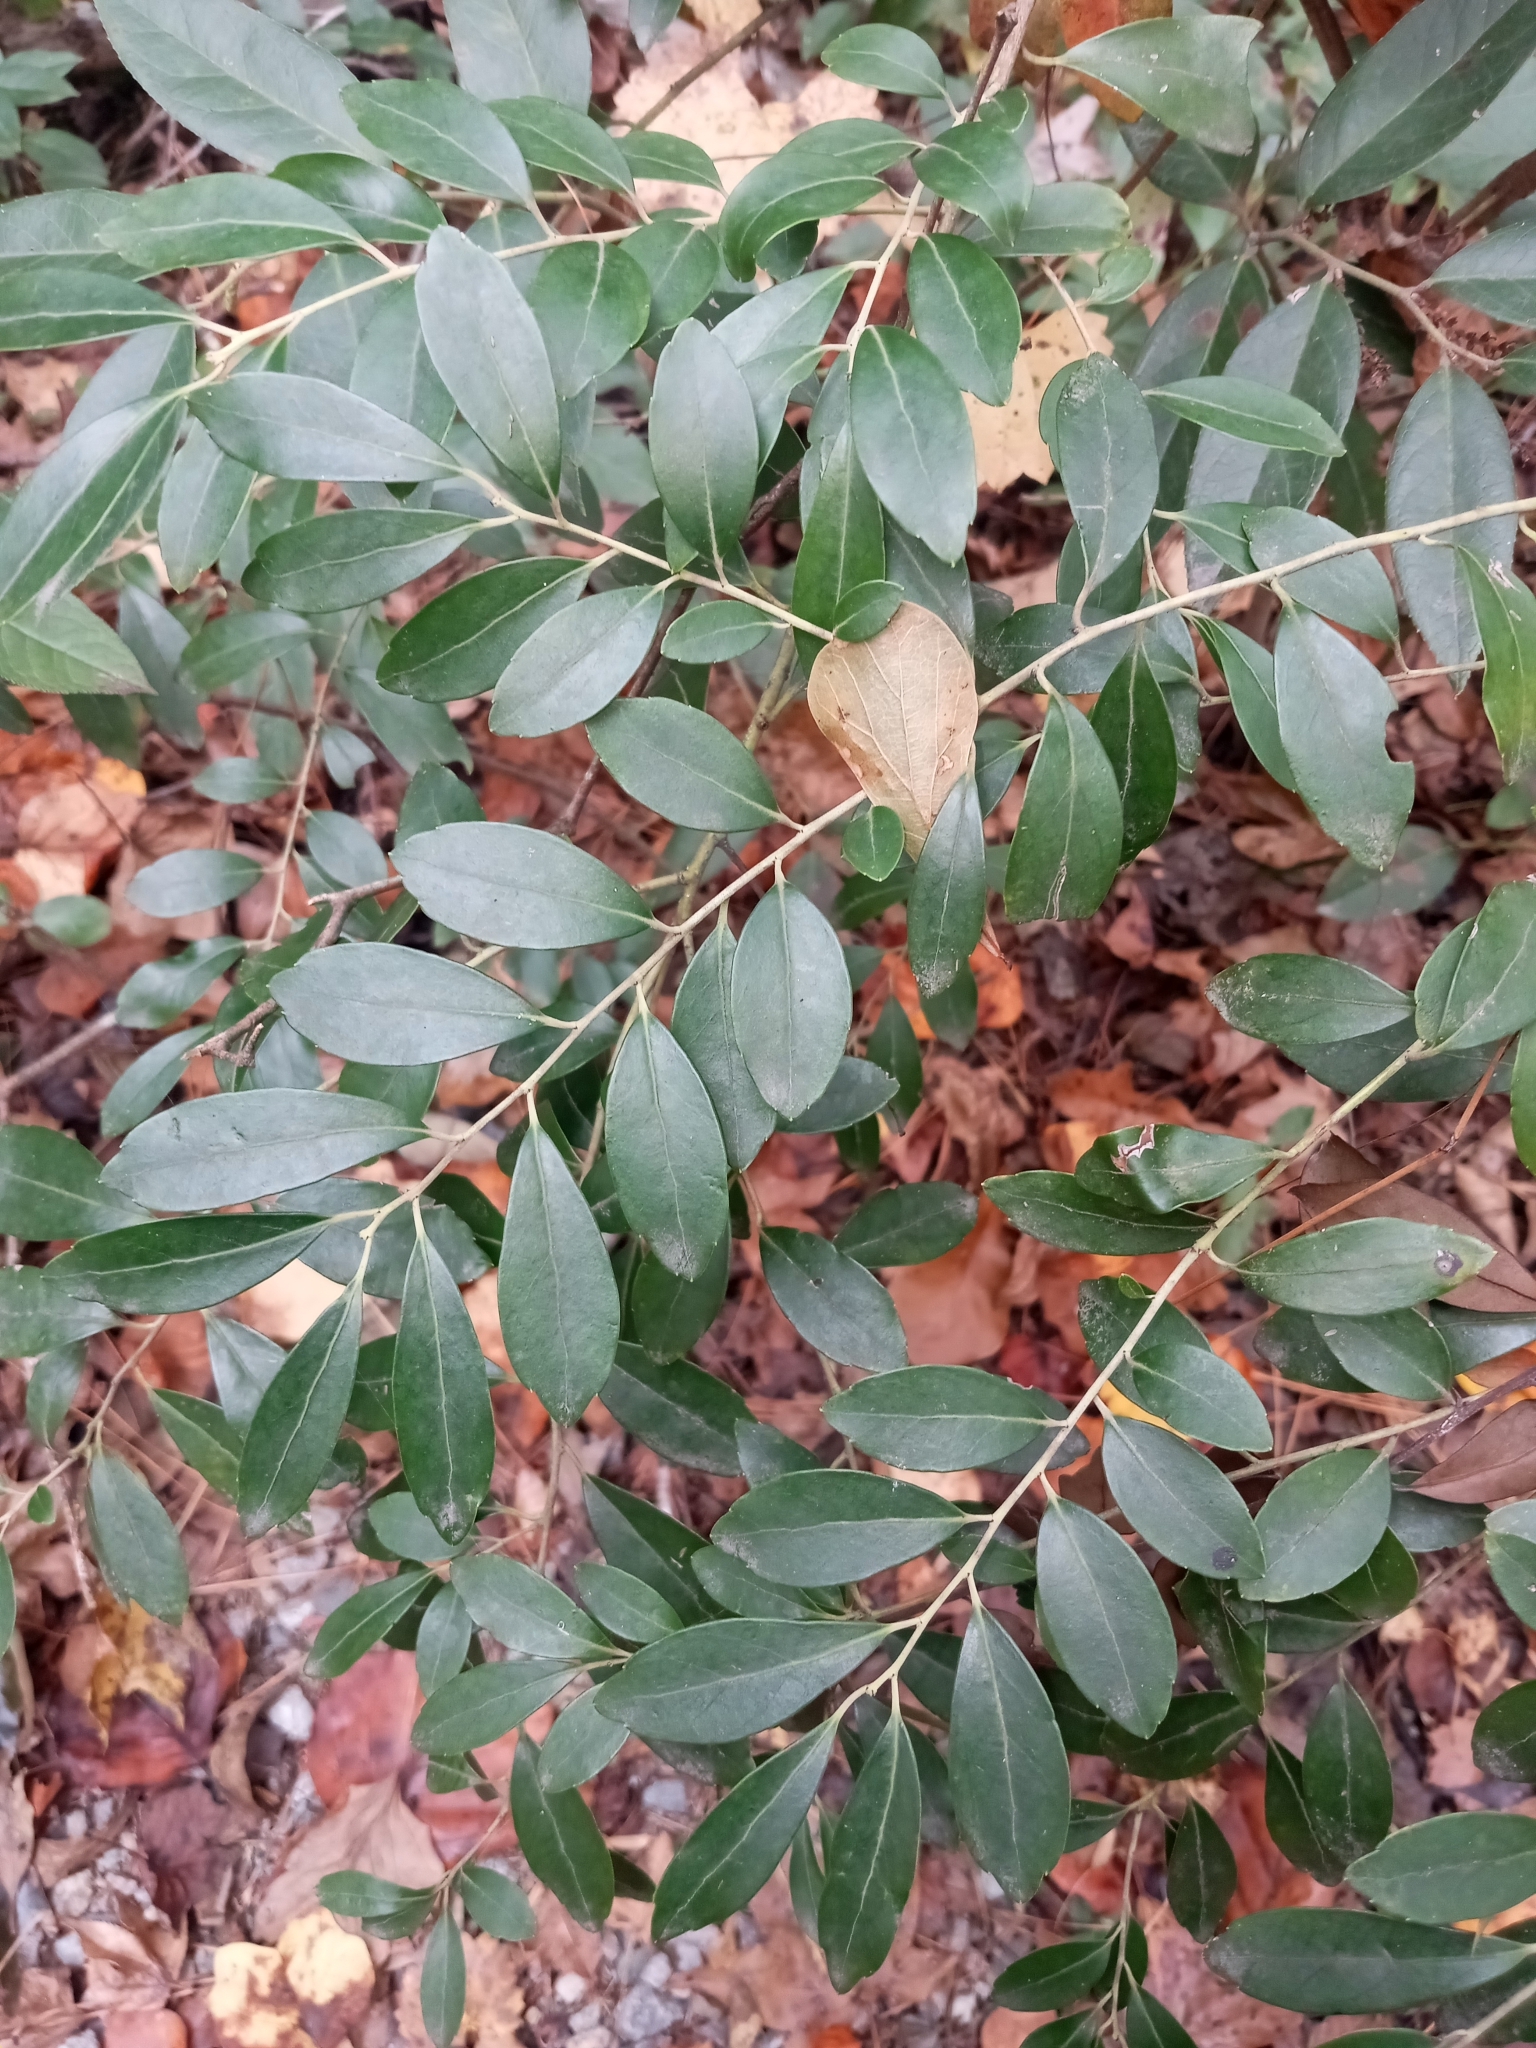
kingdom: Plantae
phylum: Tracheophyta
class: Magnoliopsida
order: Aquifoliales
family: Aquifoliaceae
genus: Ilex
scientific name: Ilex glabra
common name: Bitter gallberry
